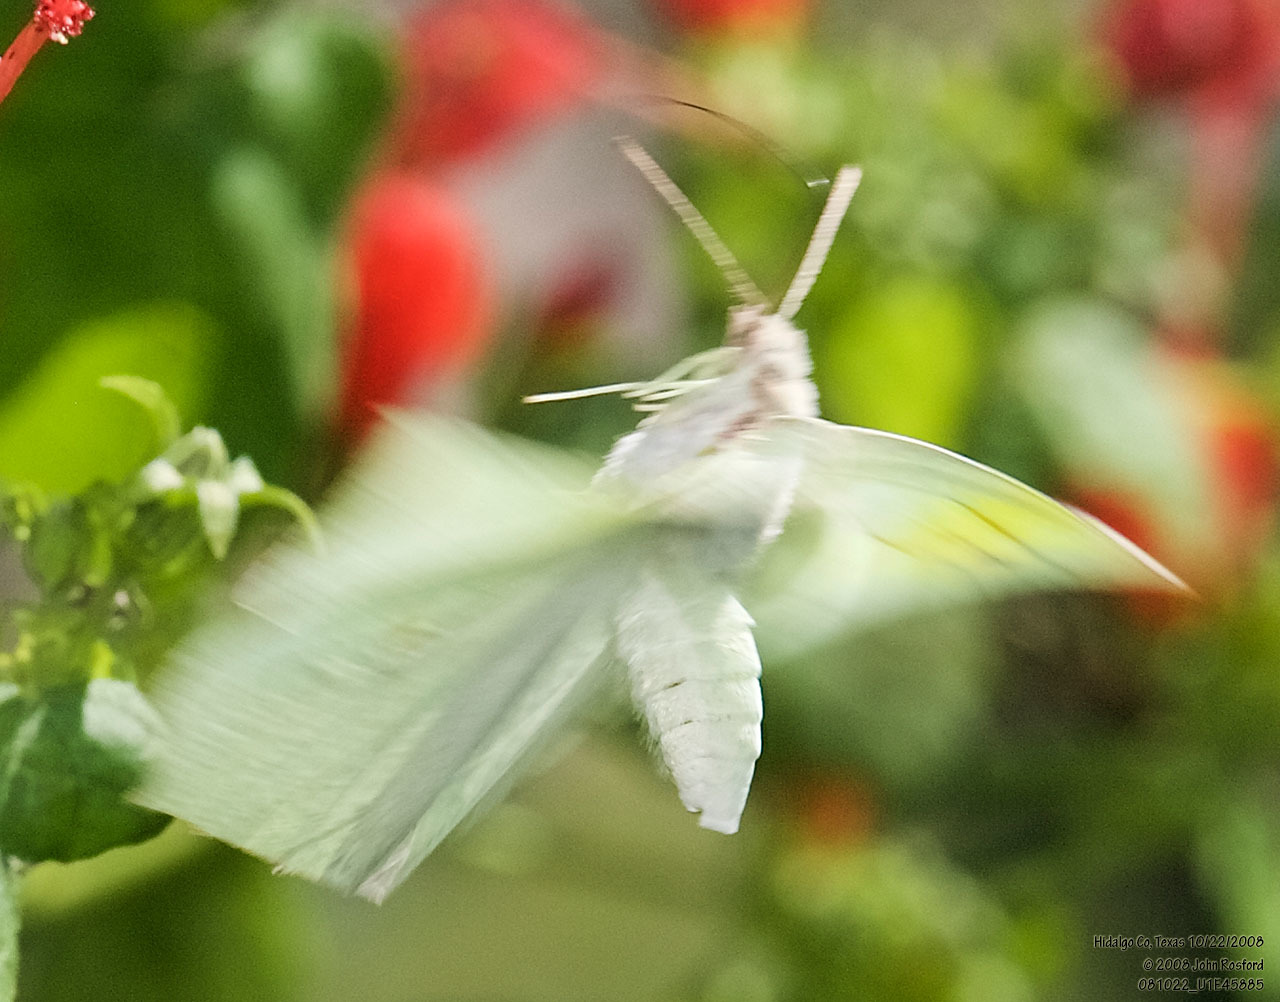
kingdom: Animalia
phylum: Arthropoda
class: Insecta
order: Lepidoptera
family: Pieridae
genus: Anteos
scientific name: Anteos clorinde
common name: White angled sulphur
